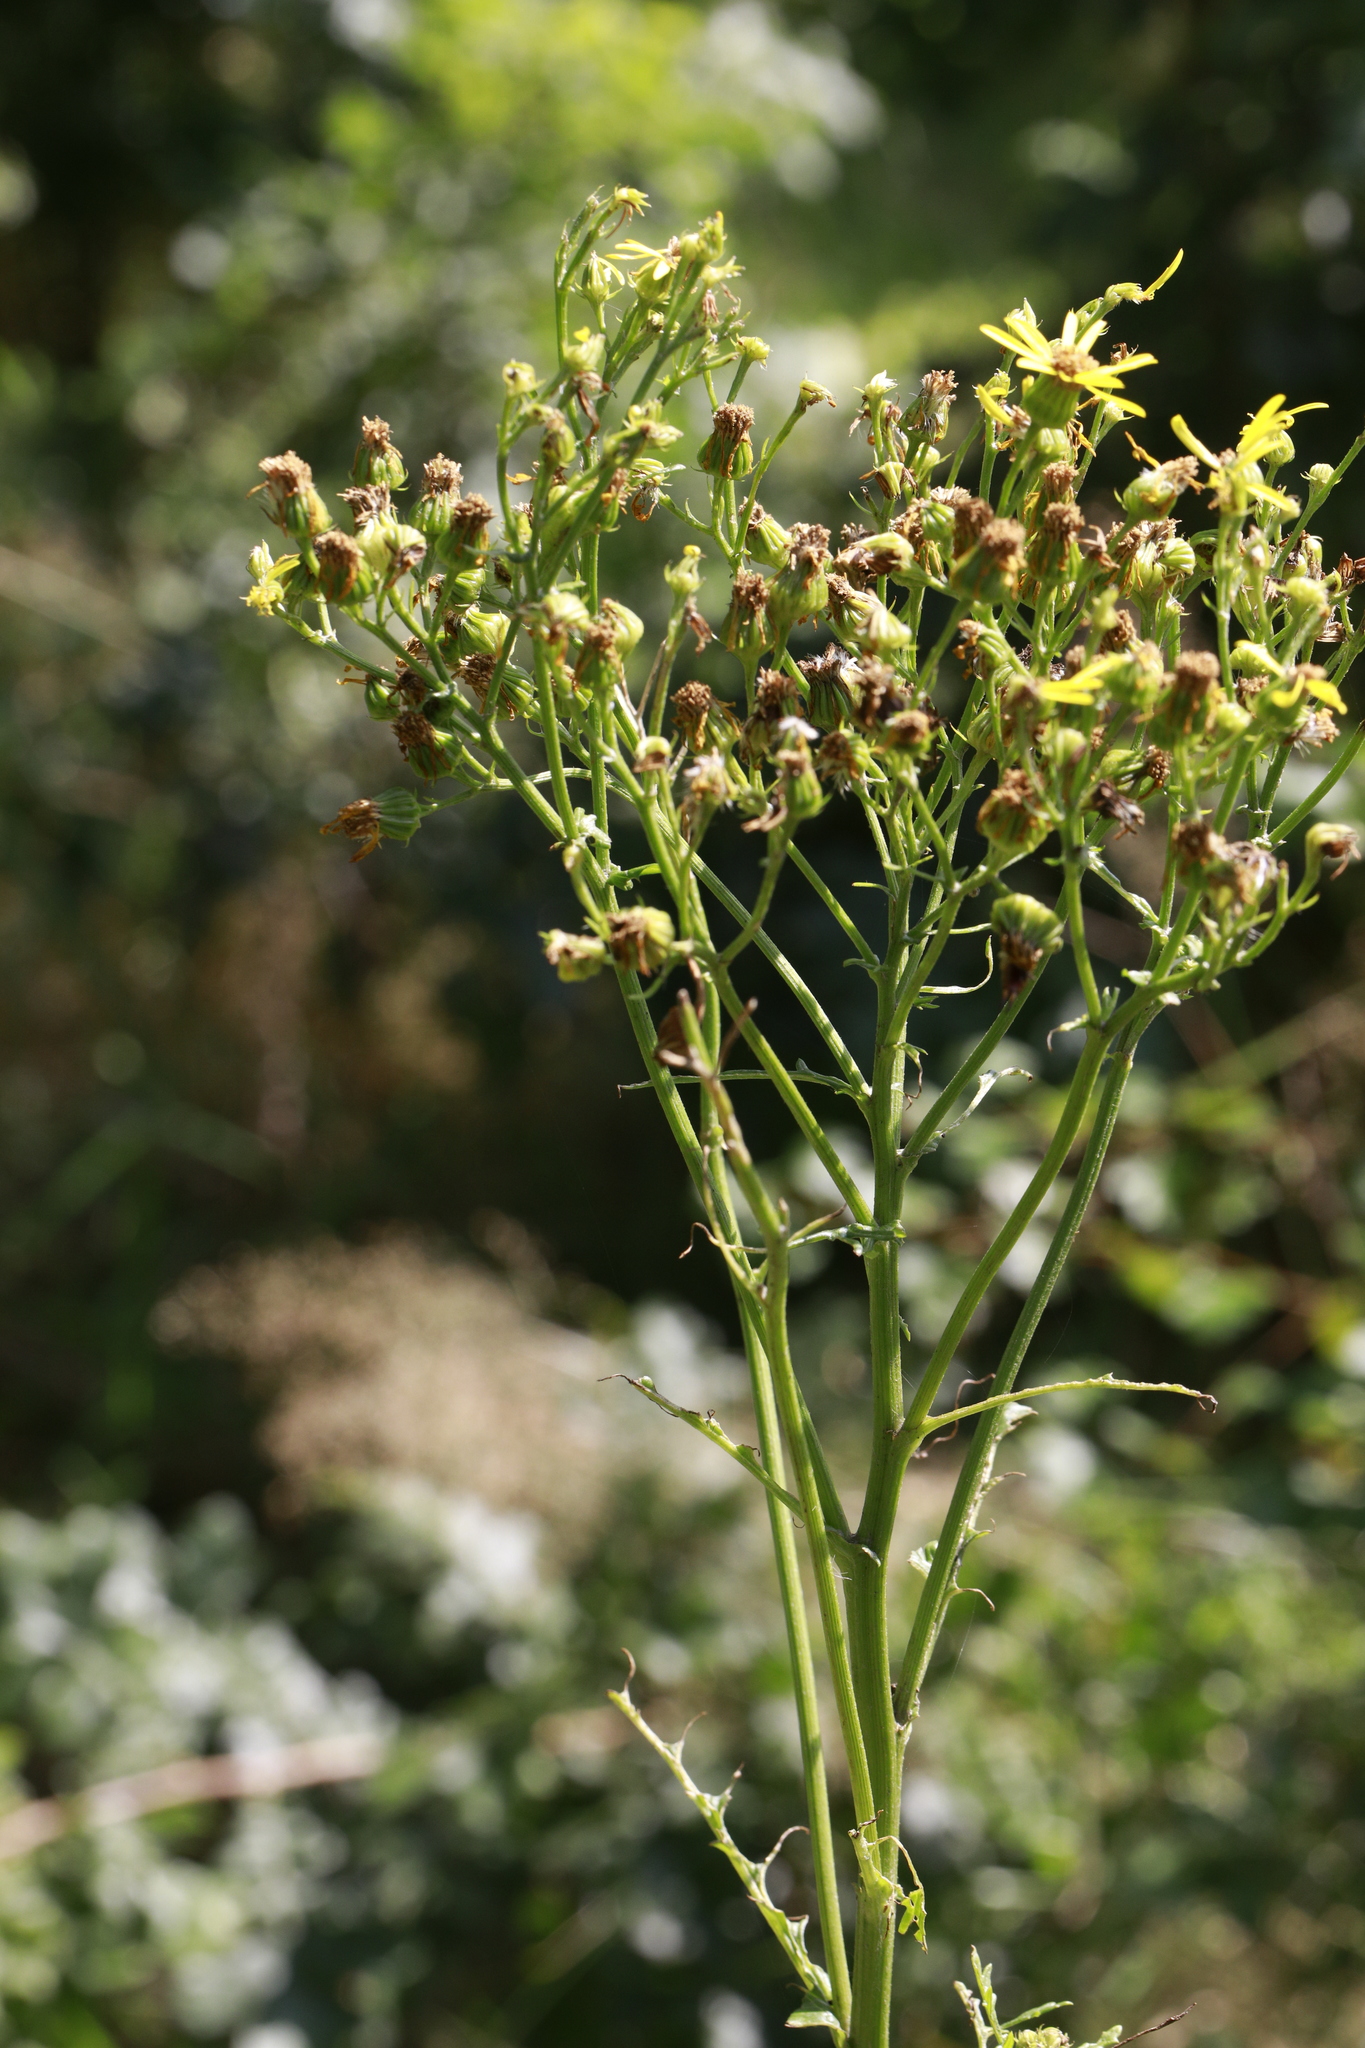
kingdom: Plantae
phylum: Tracheophyta
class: Magnoliopsida
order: Asterales
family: Asteraceae
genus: Jacobaea
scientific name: Jacobaea vulgaris
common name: Stinking willie
